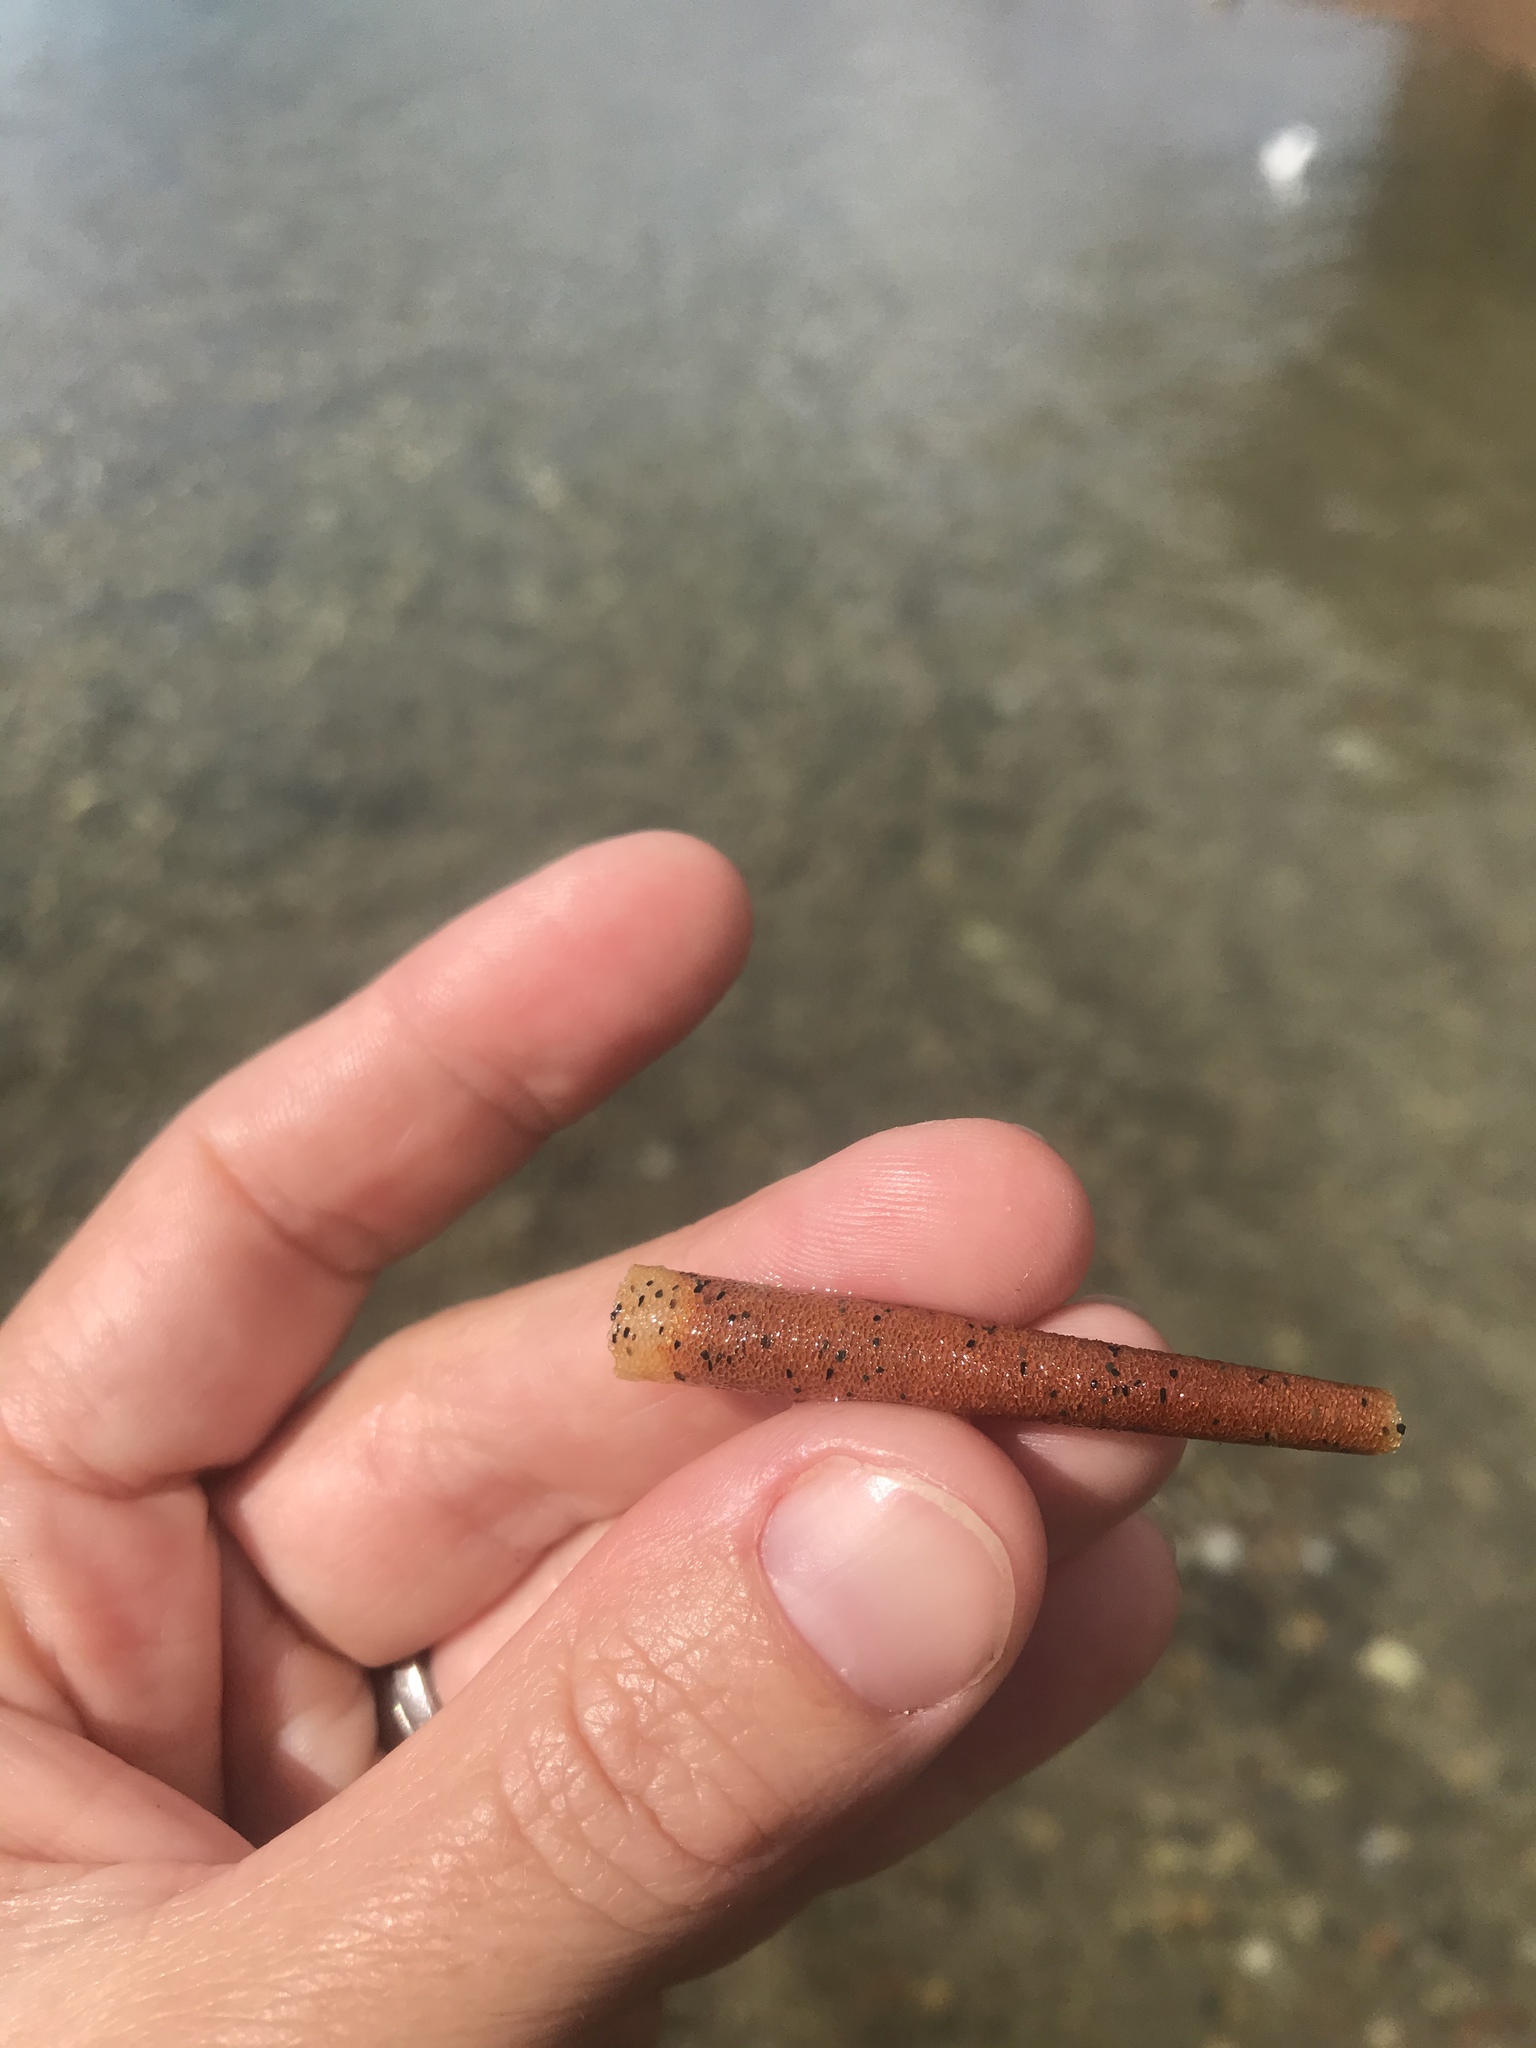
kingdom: Animalia
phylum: Annelida
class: Polychaeta
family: Pectinariidae
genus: Lagis
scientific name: Lagis australis
